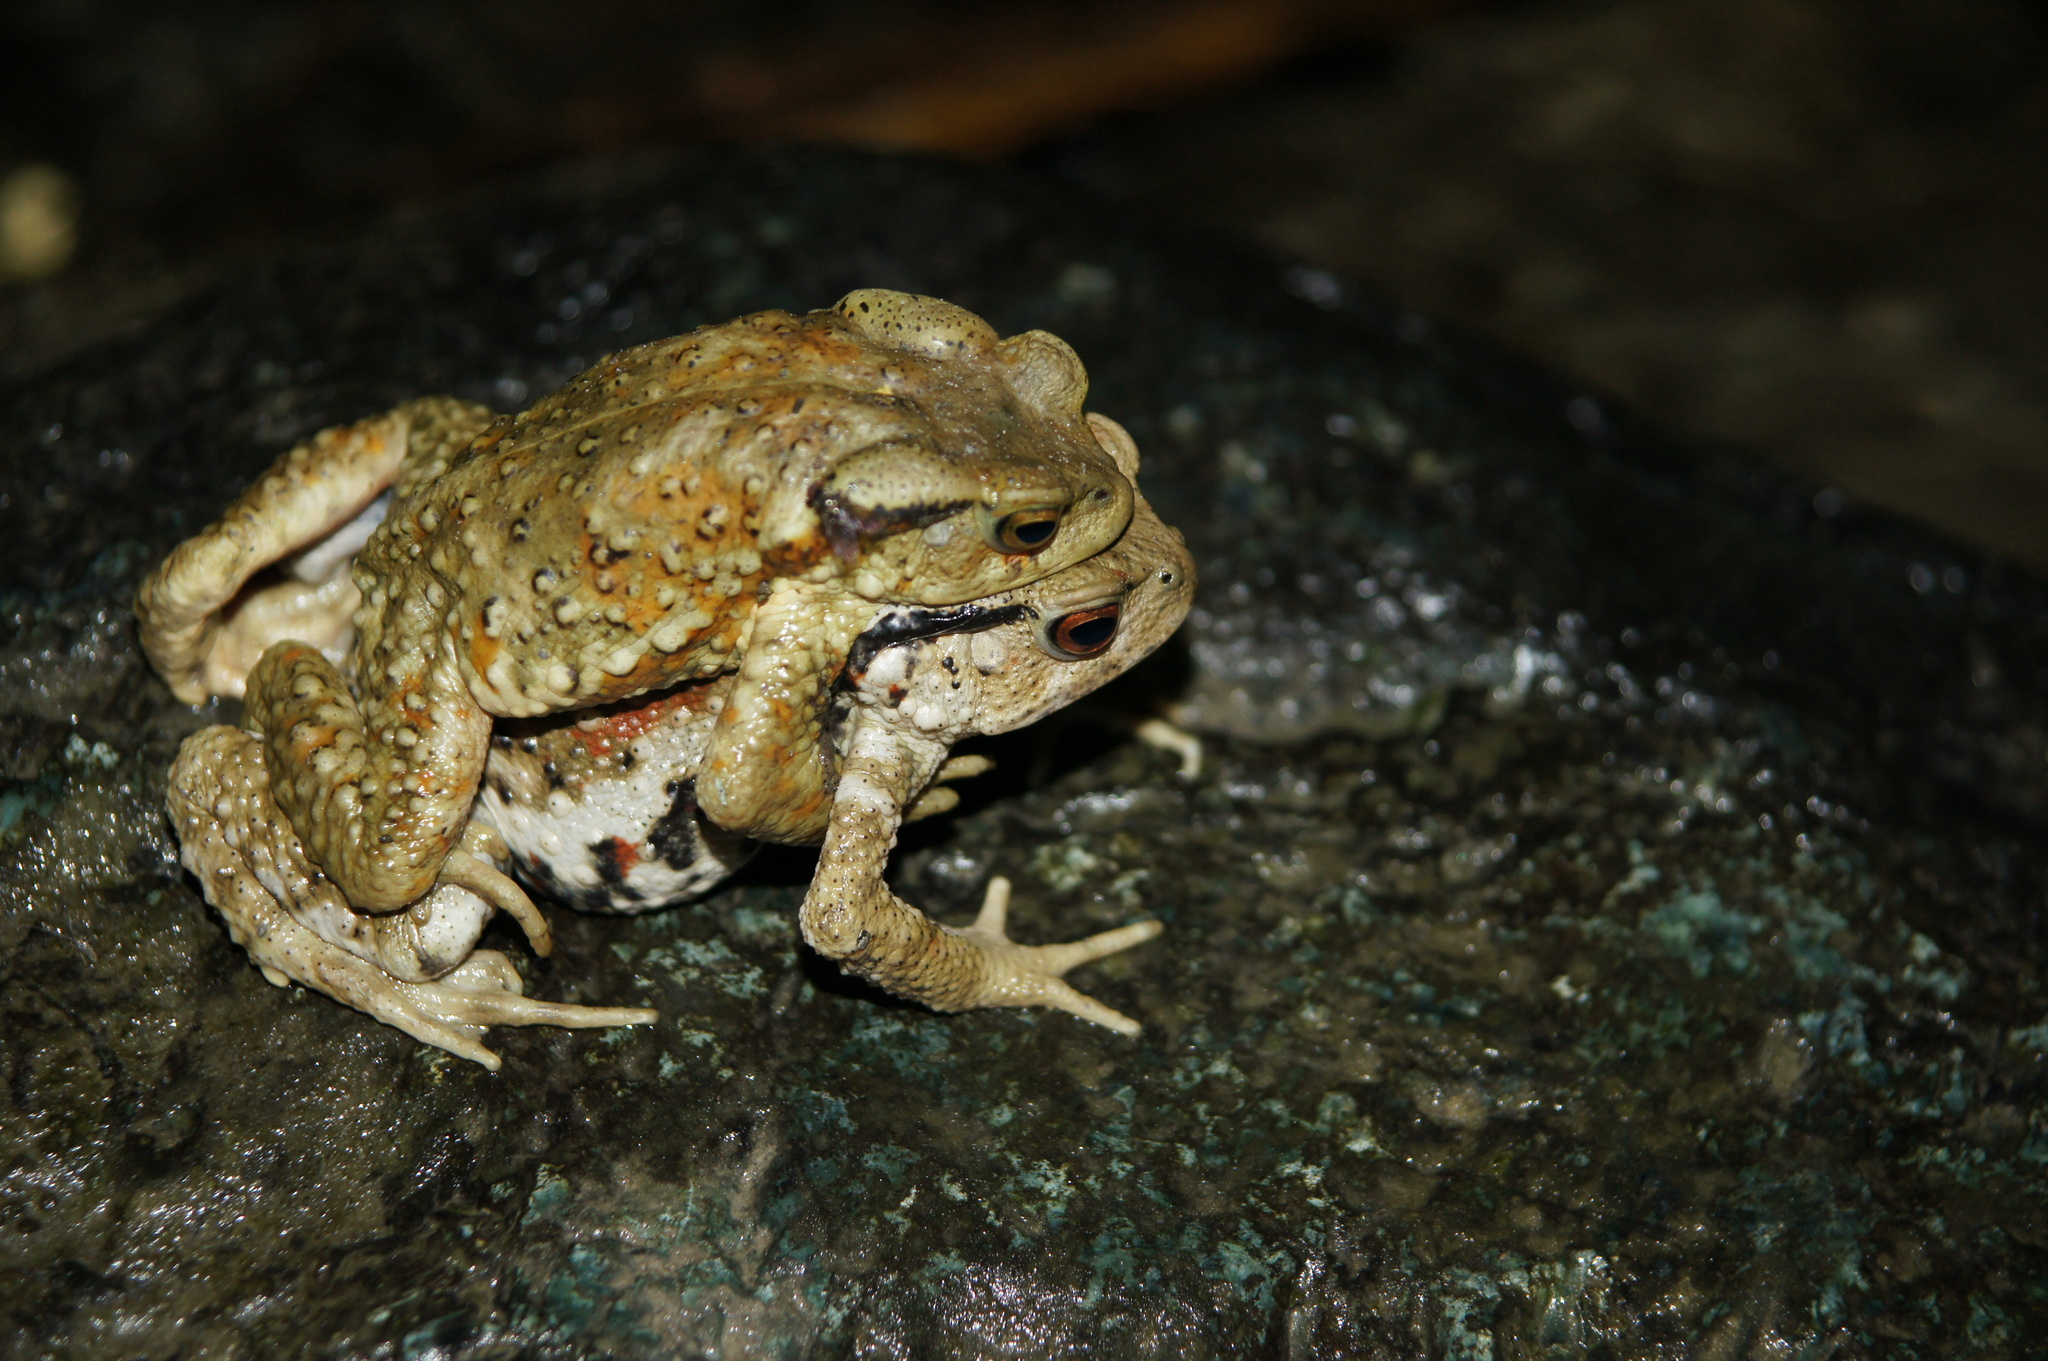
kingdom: Animalia
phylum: Chordata
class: Amphibia
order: Anura
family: Bufonidae
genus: Bufo
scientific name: Bufo bankorensis
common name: Bankor toad
